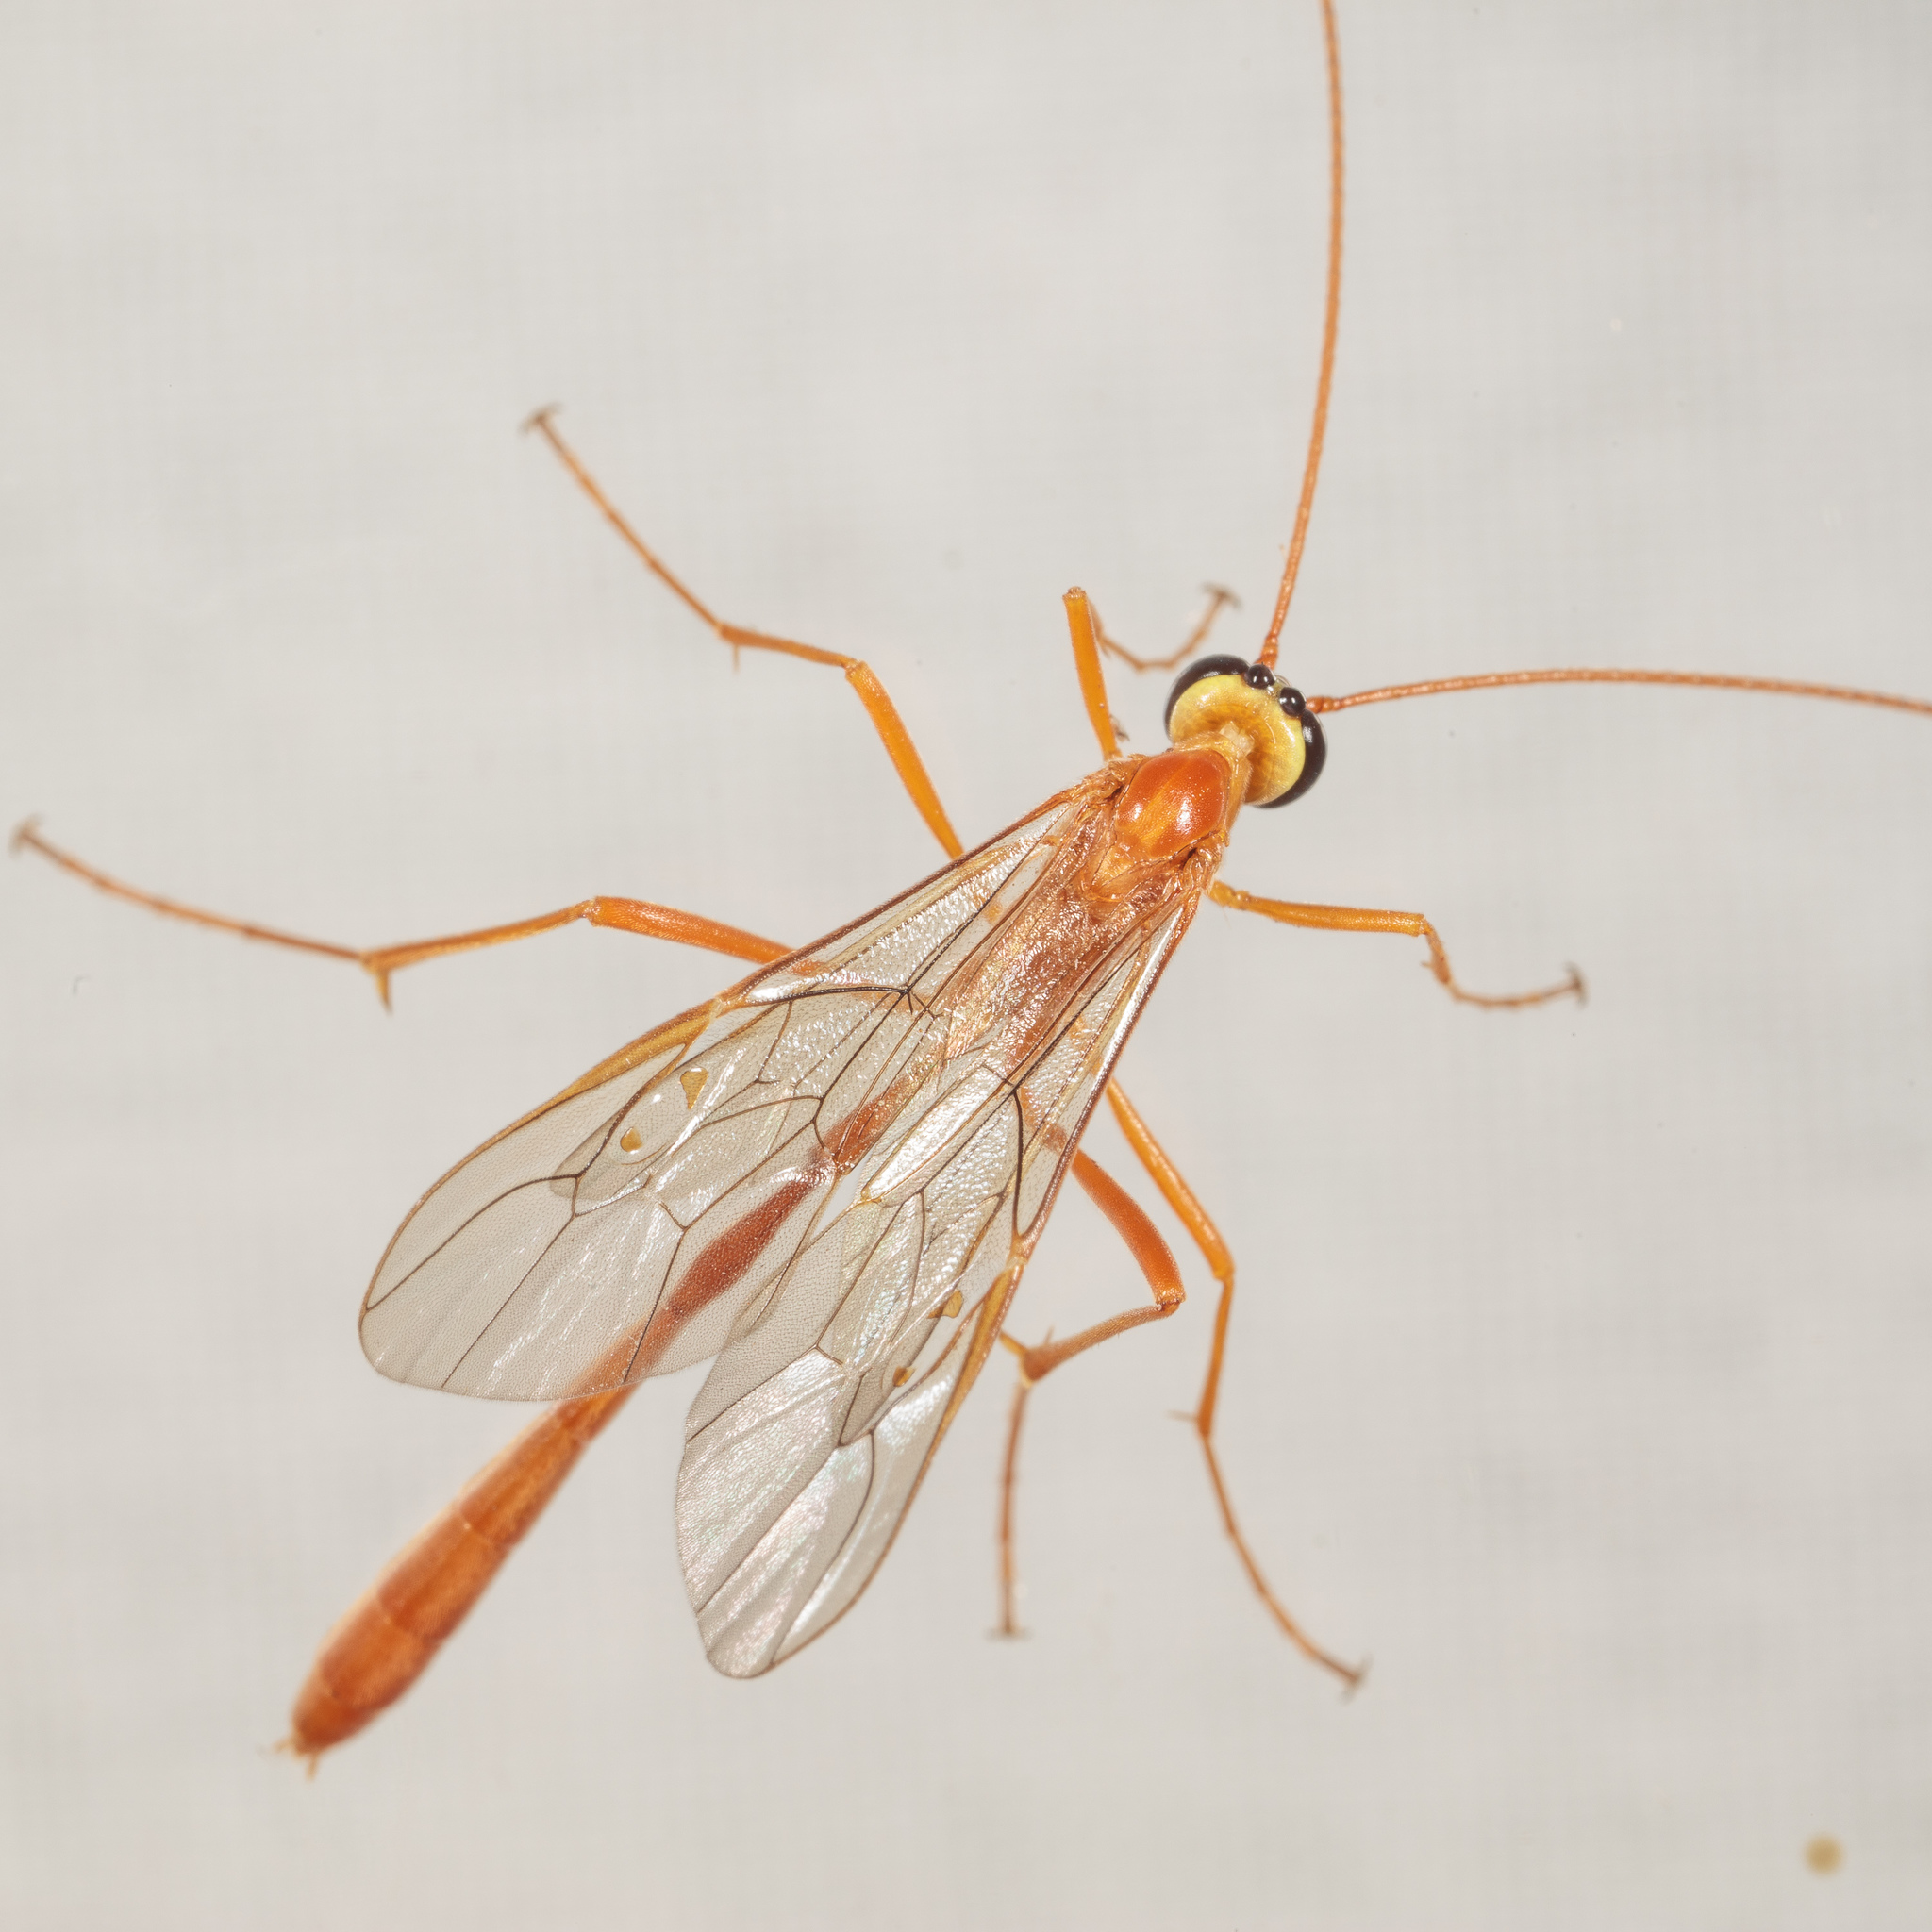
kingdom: Animalia
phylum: Arthropoda
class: Insecta
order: Hymenoptera
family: Ichneumonidae
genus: Enicospilus
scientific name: Enicospilus purgatus
